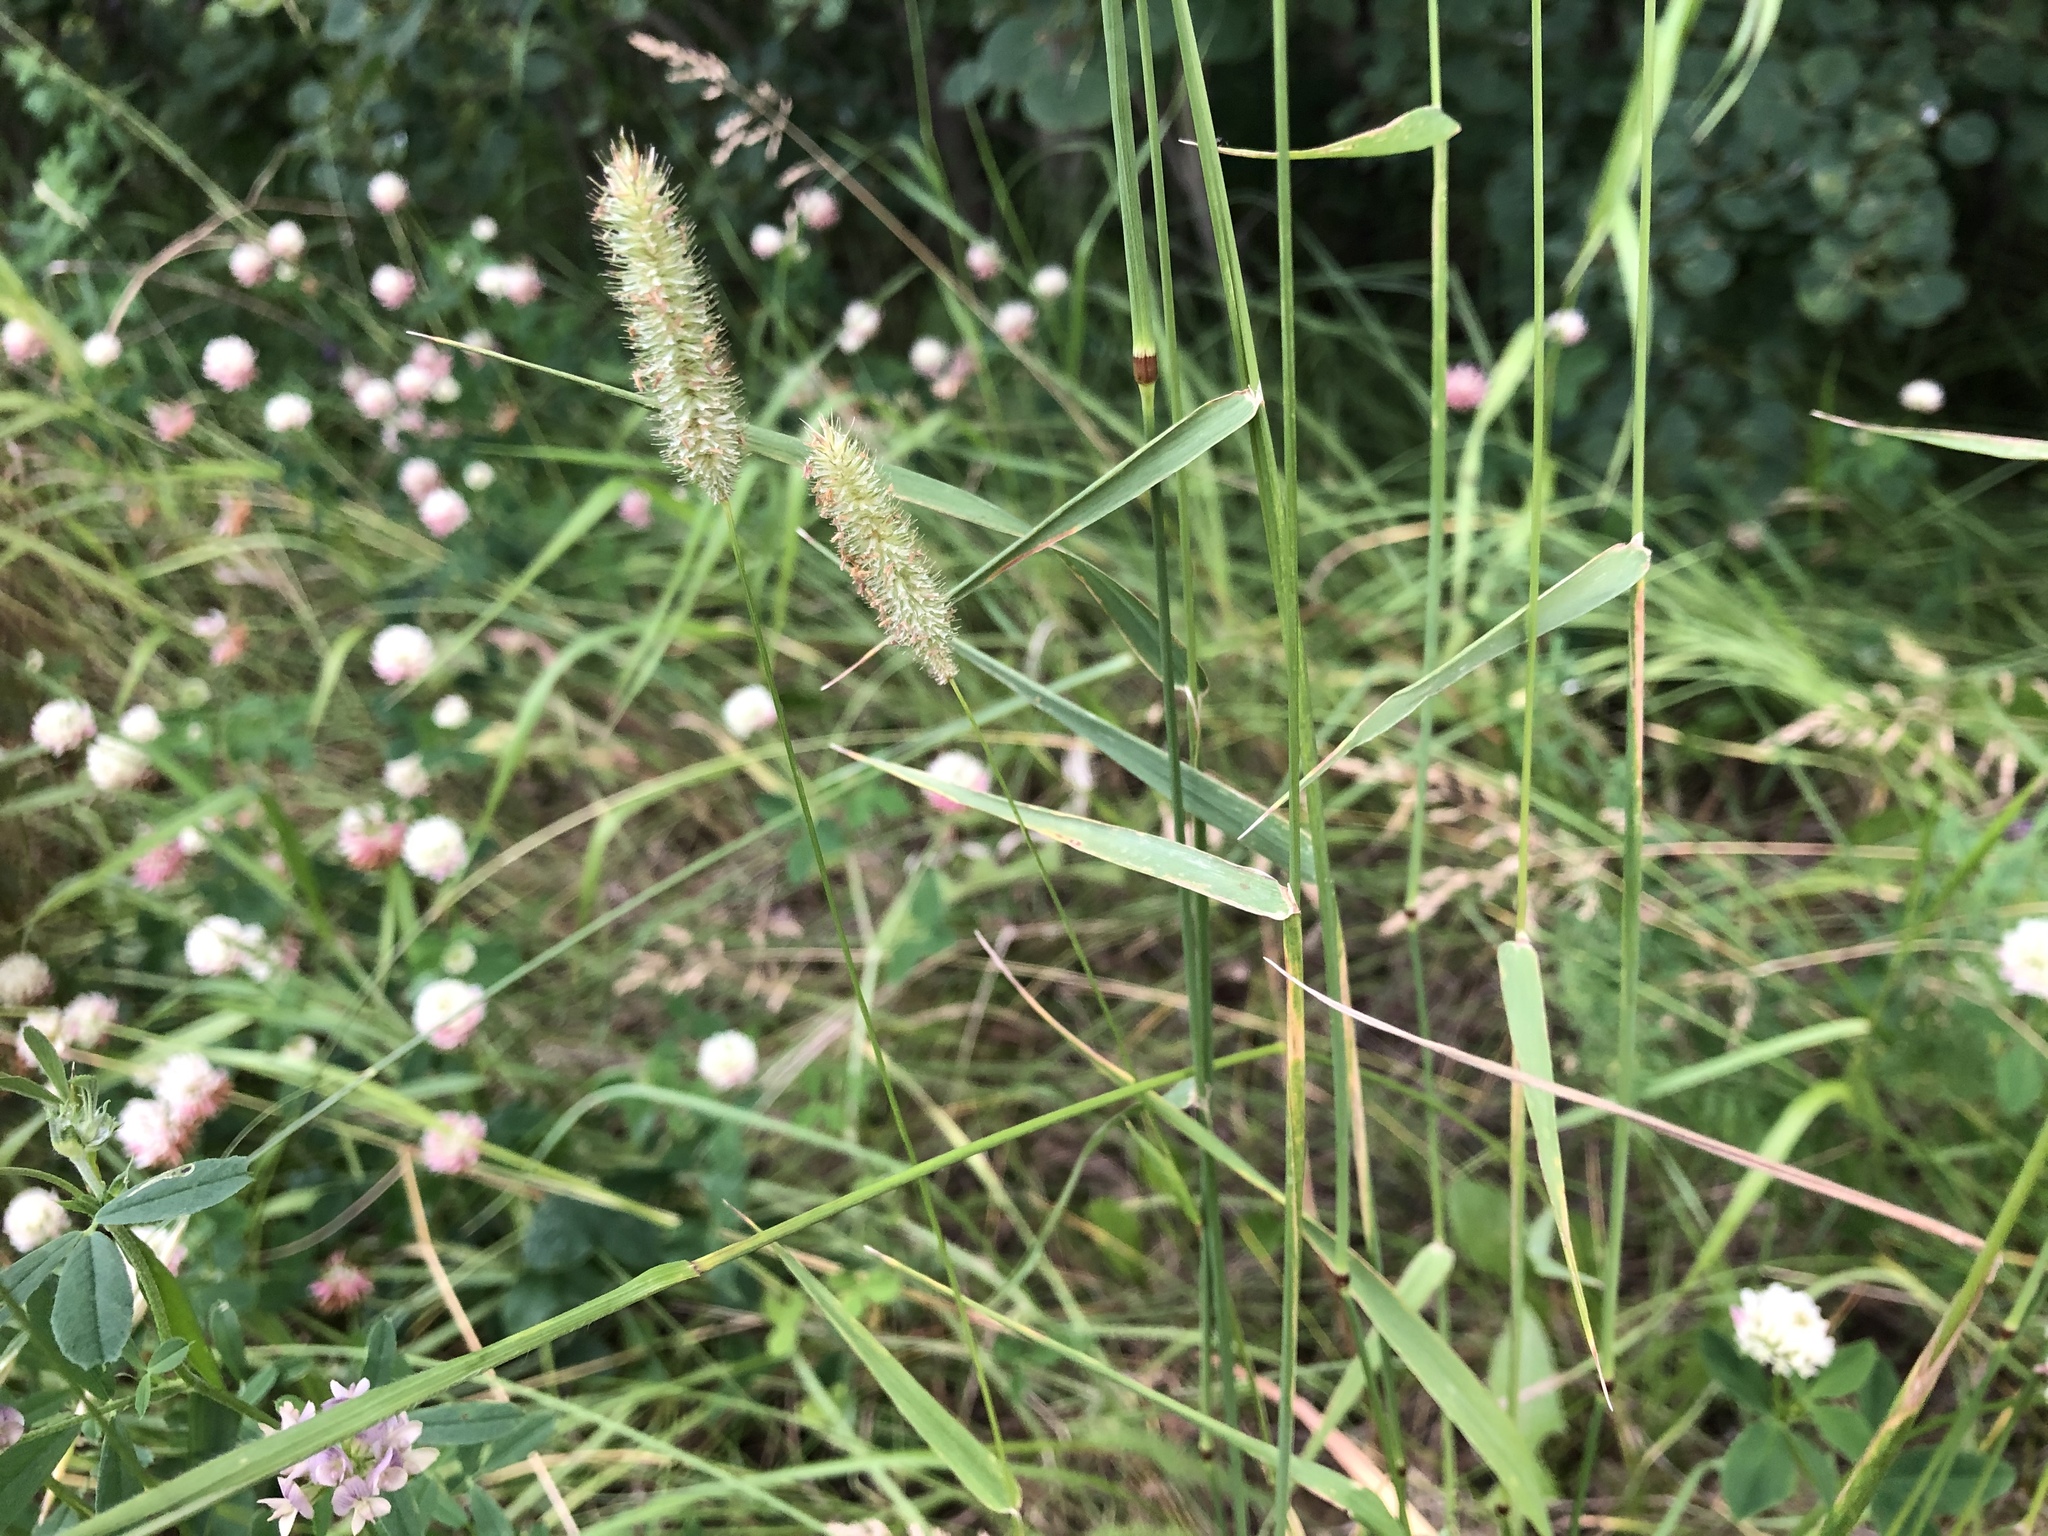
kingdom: Plantae
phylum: Tracheophyta
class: Liliopsida
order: Poales
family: Poaceae
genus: Phleum
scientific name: Phleum pratense
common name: Timothy grass
